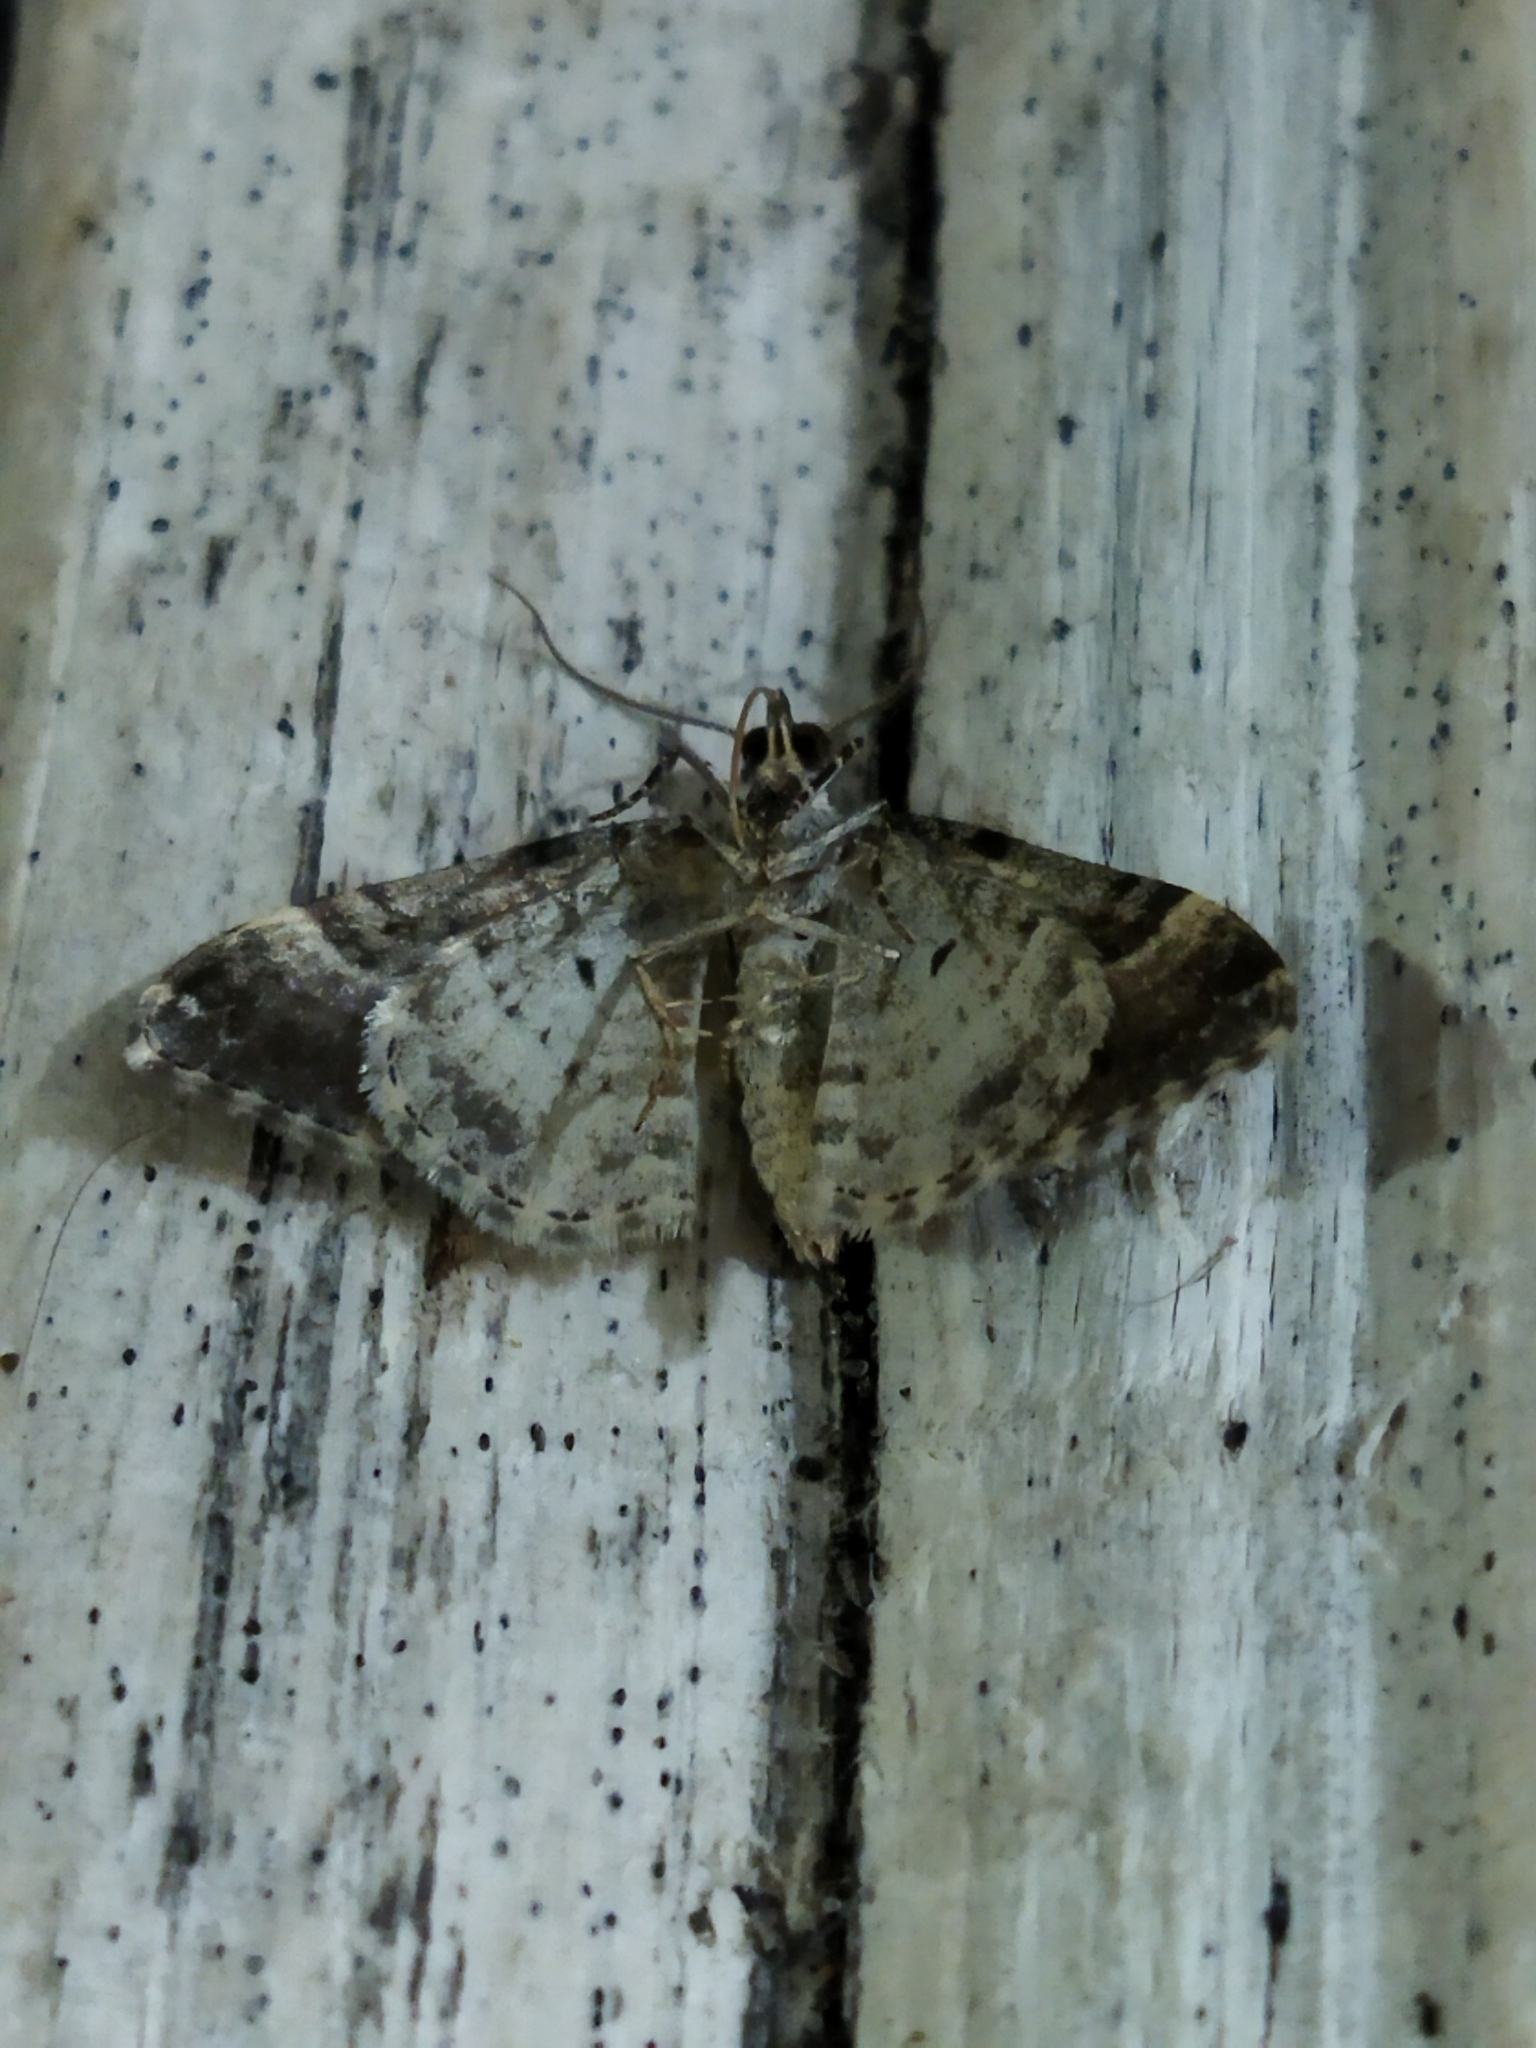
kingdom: Animalia
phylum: Arthropoda
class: Insecta
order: Lepidoptera
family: Geometridae
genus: Xanthorhoe
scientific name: Xanthorhoe fluctuata
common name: Garden carpet
